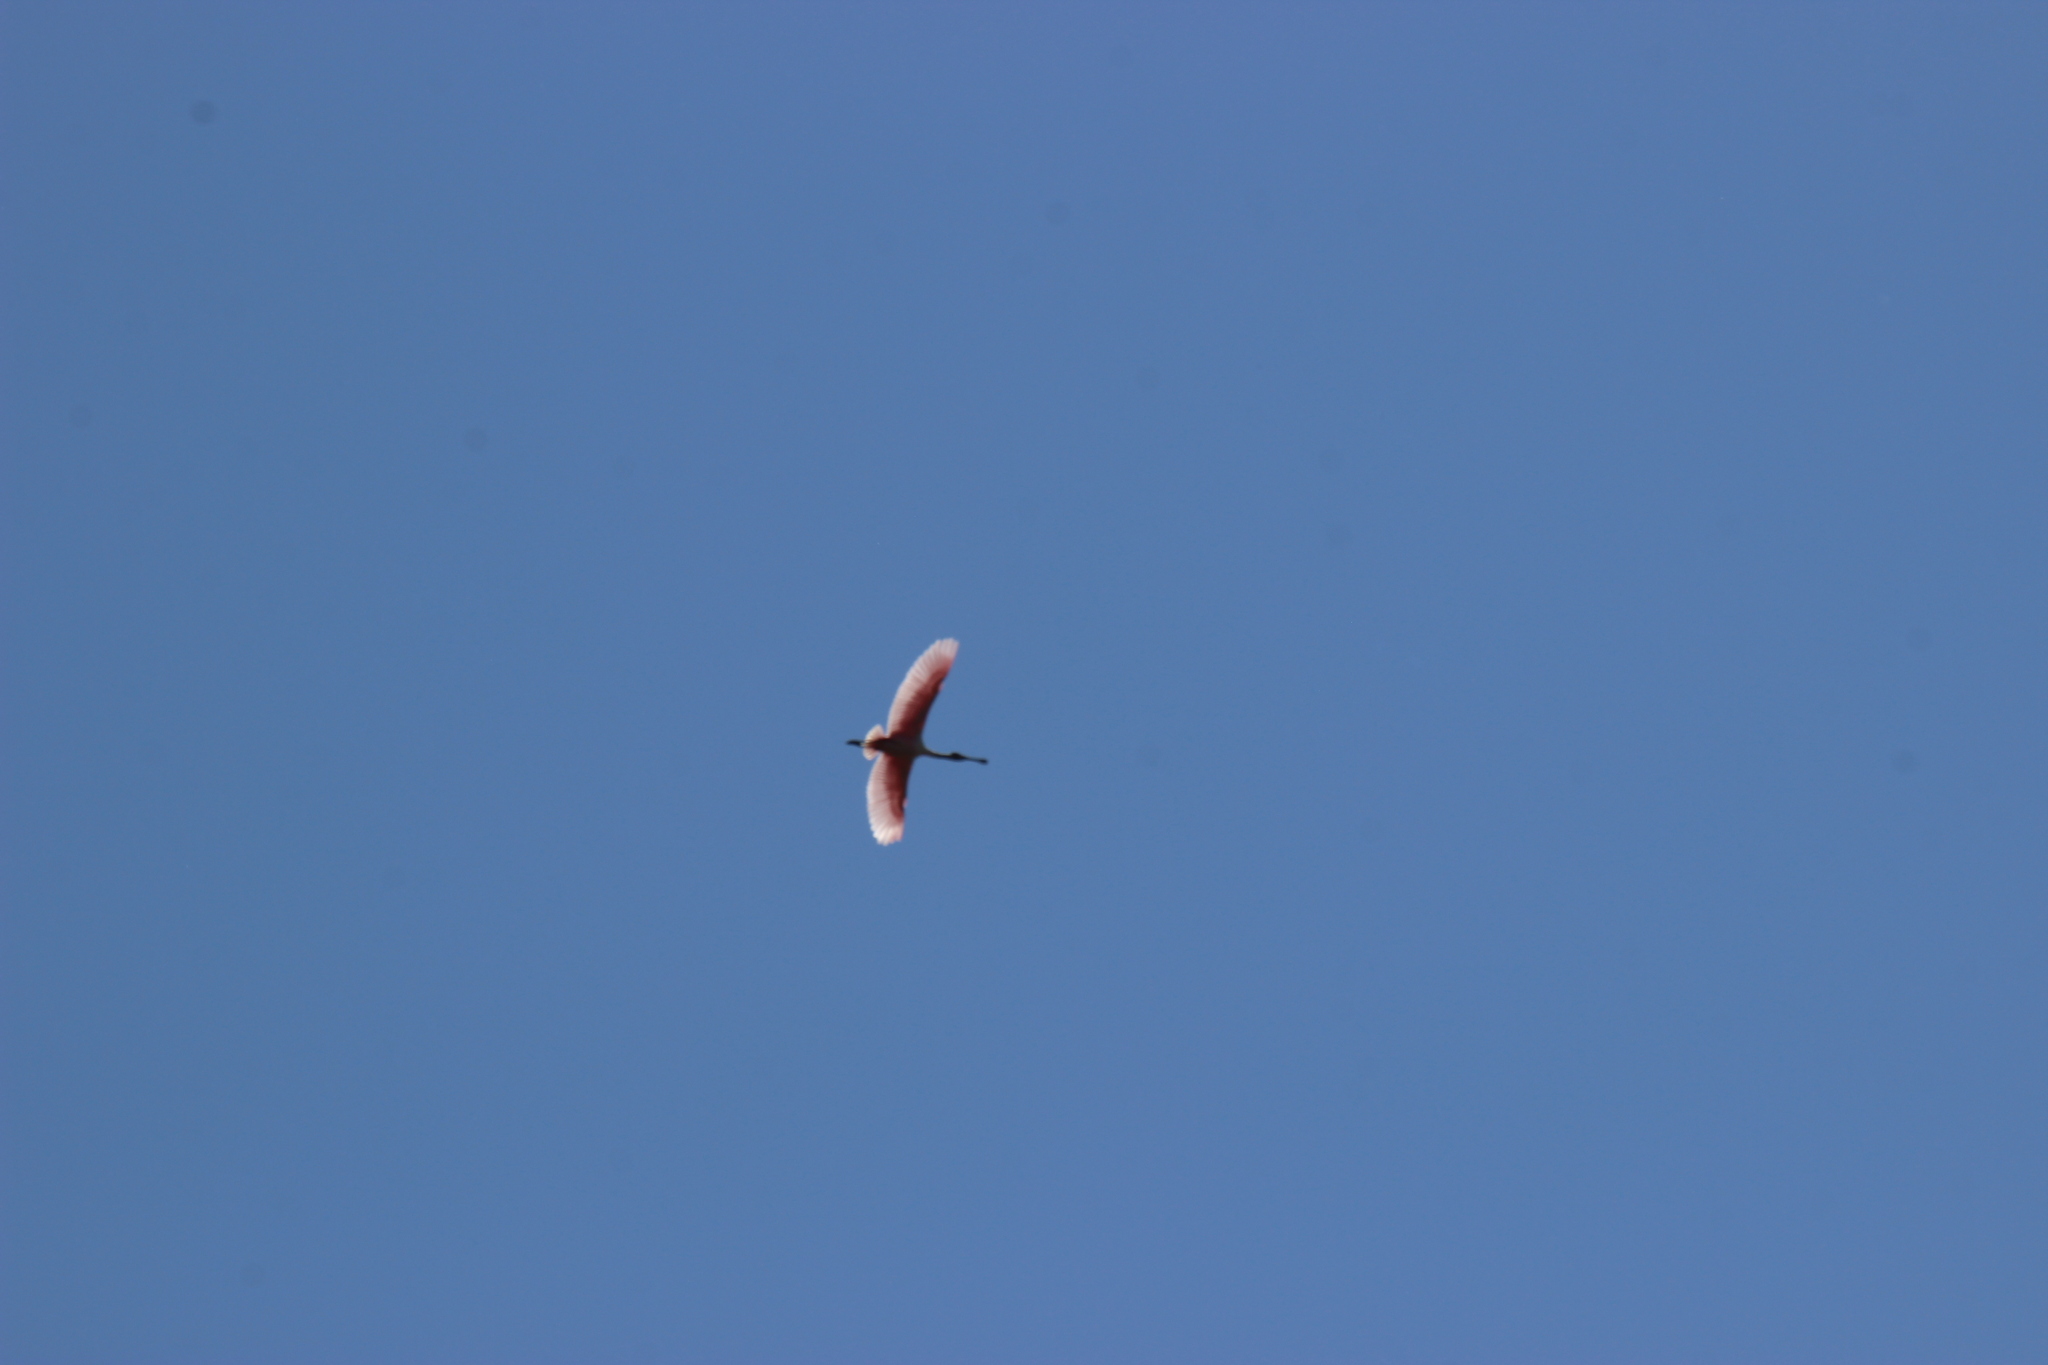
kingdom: Animalia
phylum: Chordata
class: Aves
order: Pelecaniformes
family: Threskiornithidae
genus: Platalea
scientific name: Platalea ajaja
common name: Roseate spoonbill
